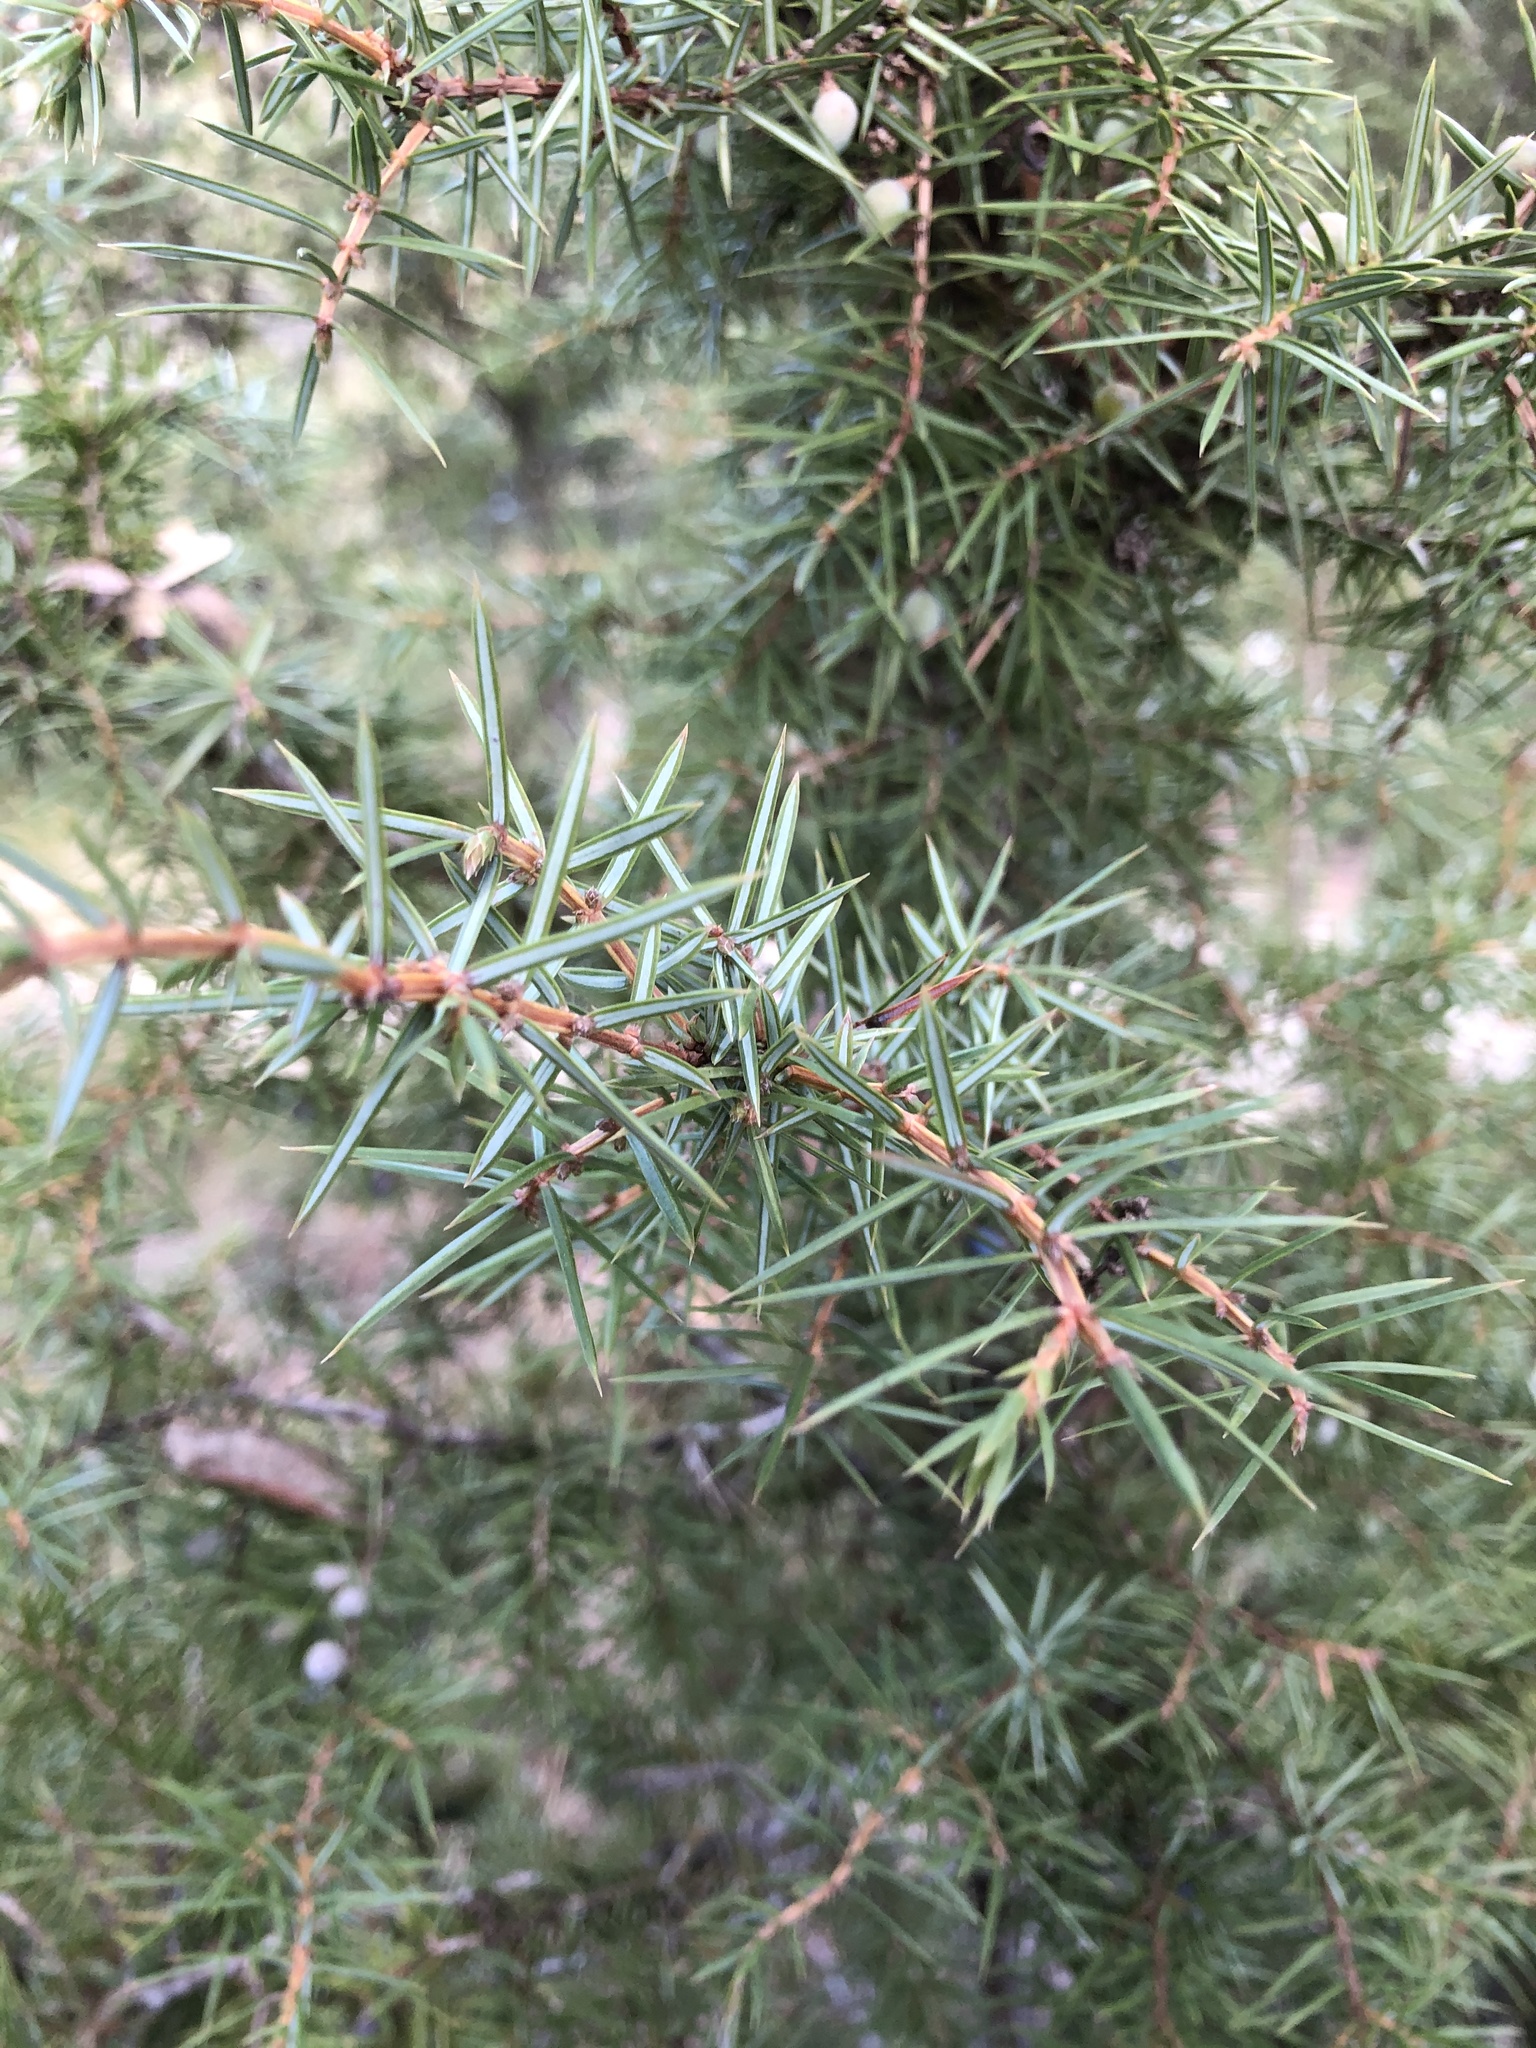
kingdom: Plantae
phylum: Tracheophyta
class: Pinopsida
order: Pinales
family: Cupressaceae
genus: Juniperus
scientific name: Juniperus communis
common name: Common juniper
